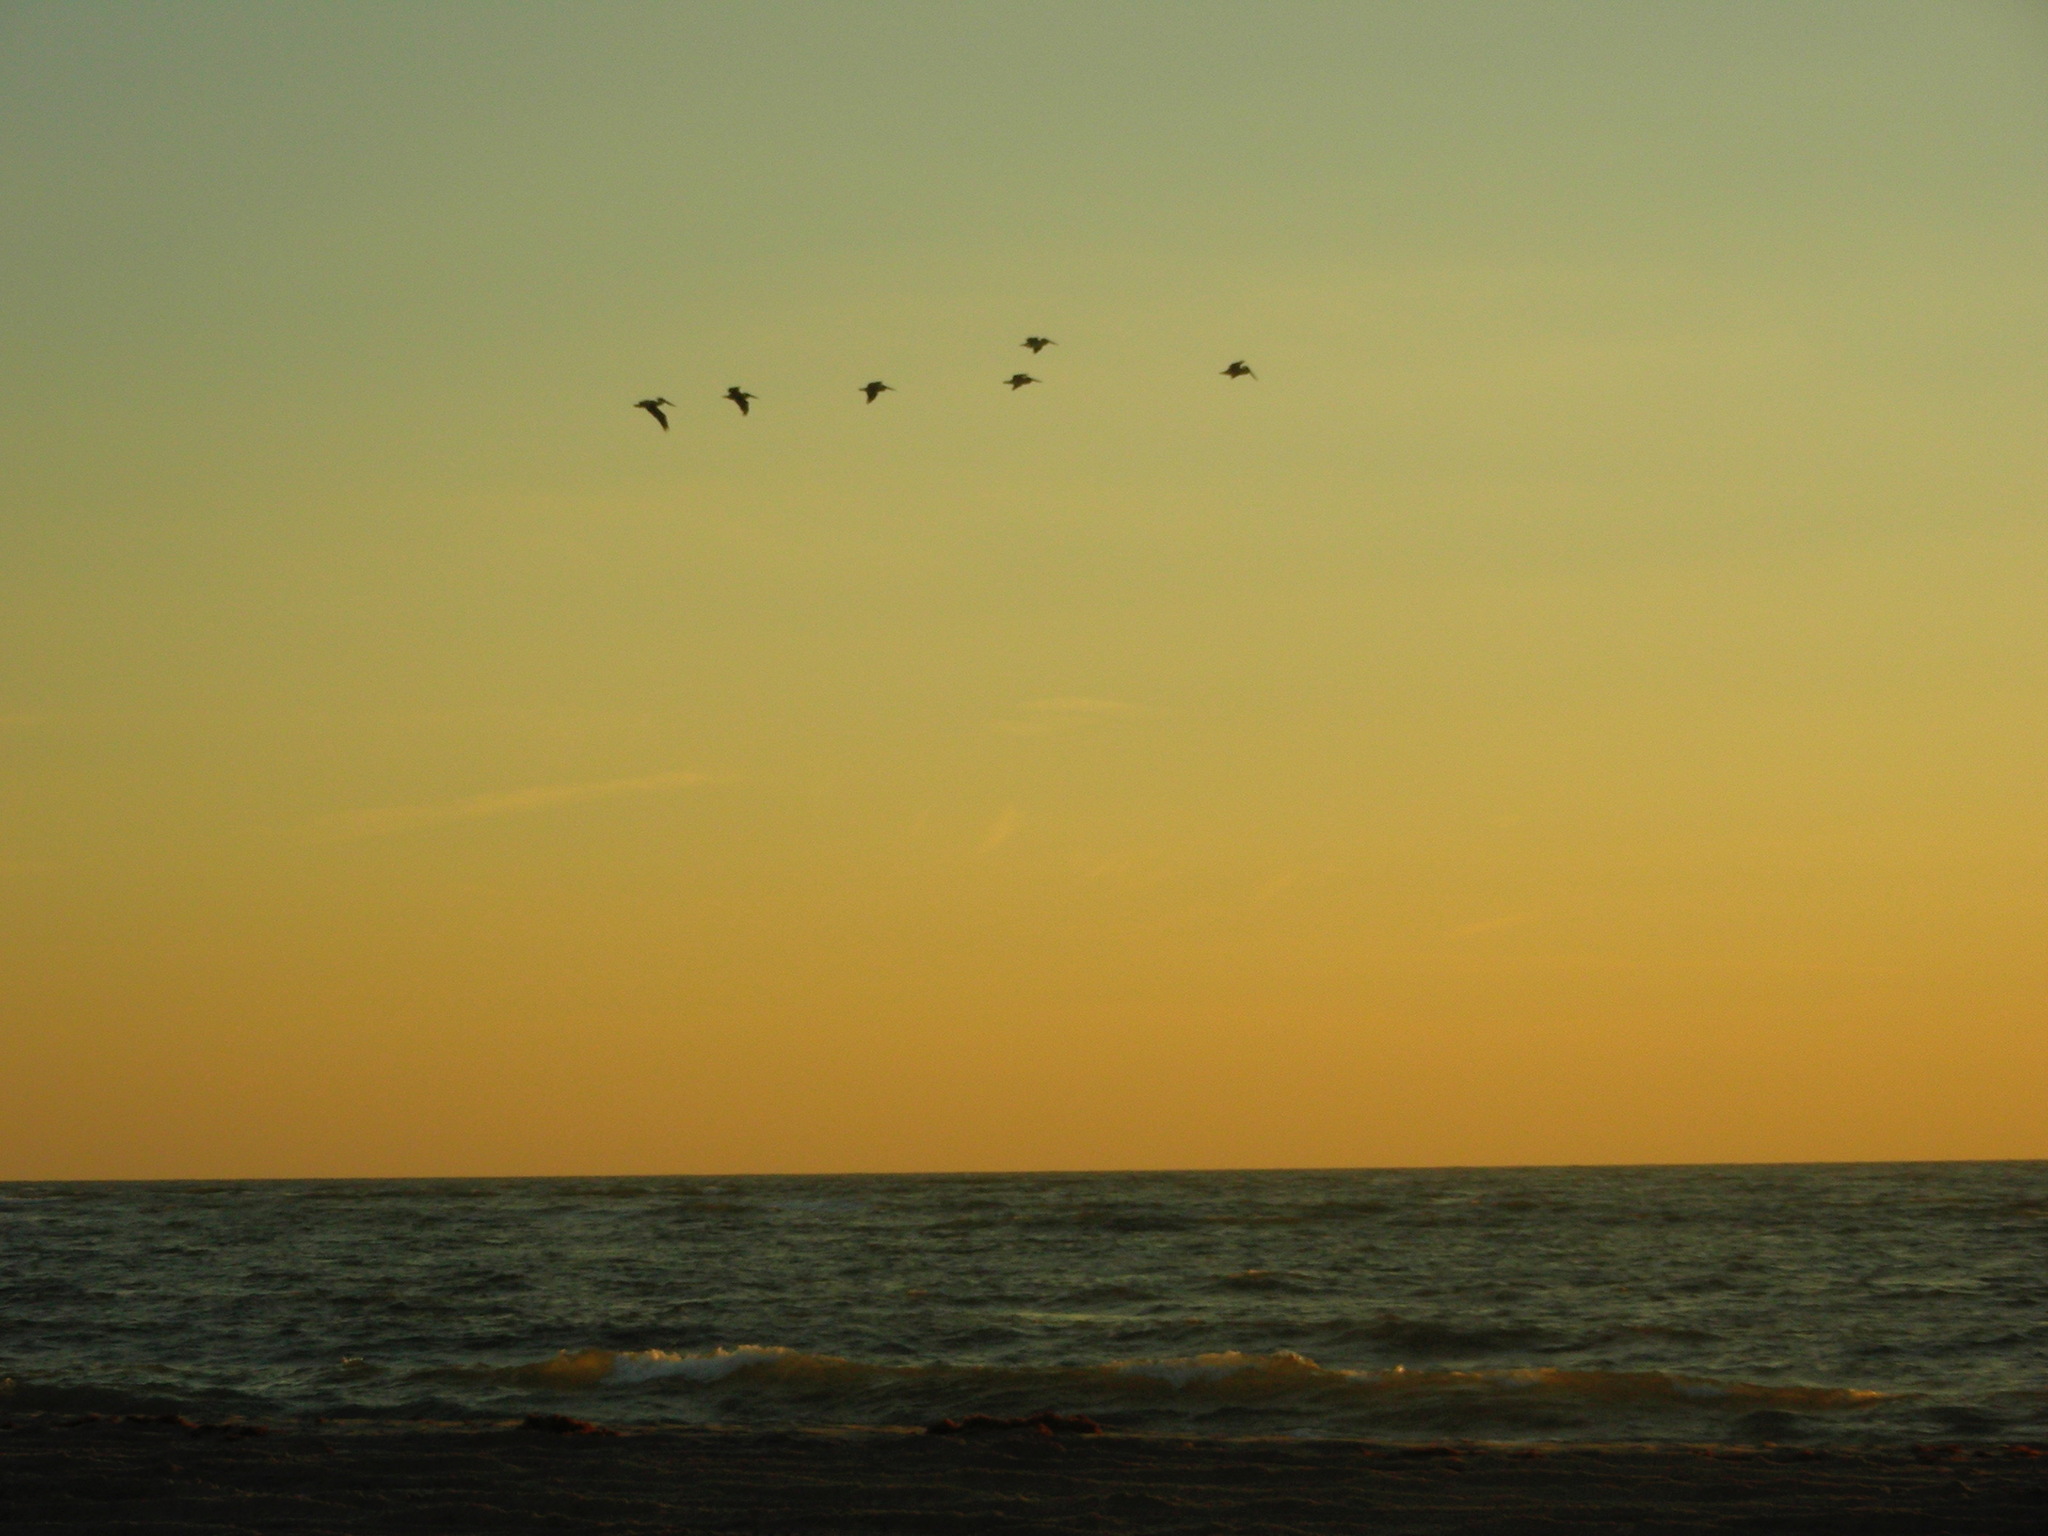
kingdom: Animalia
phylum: Chordata
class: Aves
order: Pelecaniformes
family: Pelecanidae
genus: Pelecanus
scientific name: Pelecanus occidentalis
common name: Brown pelican
